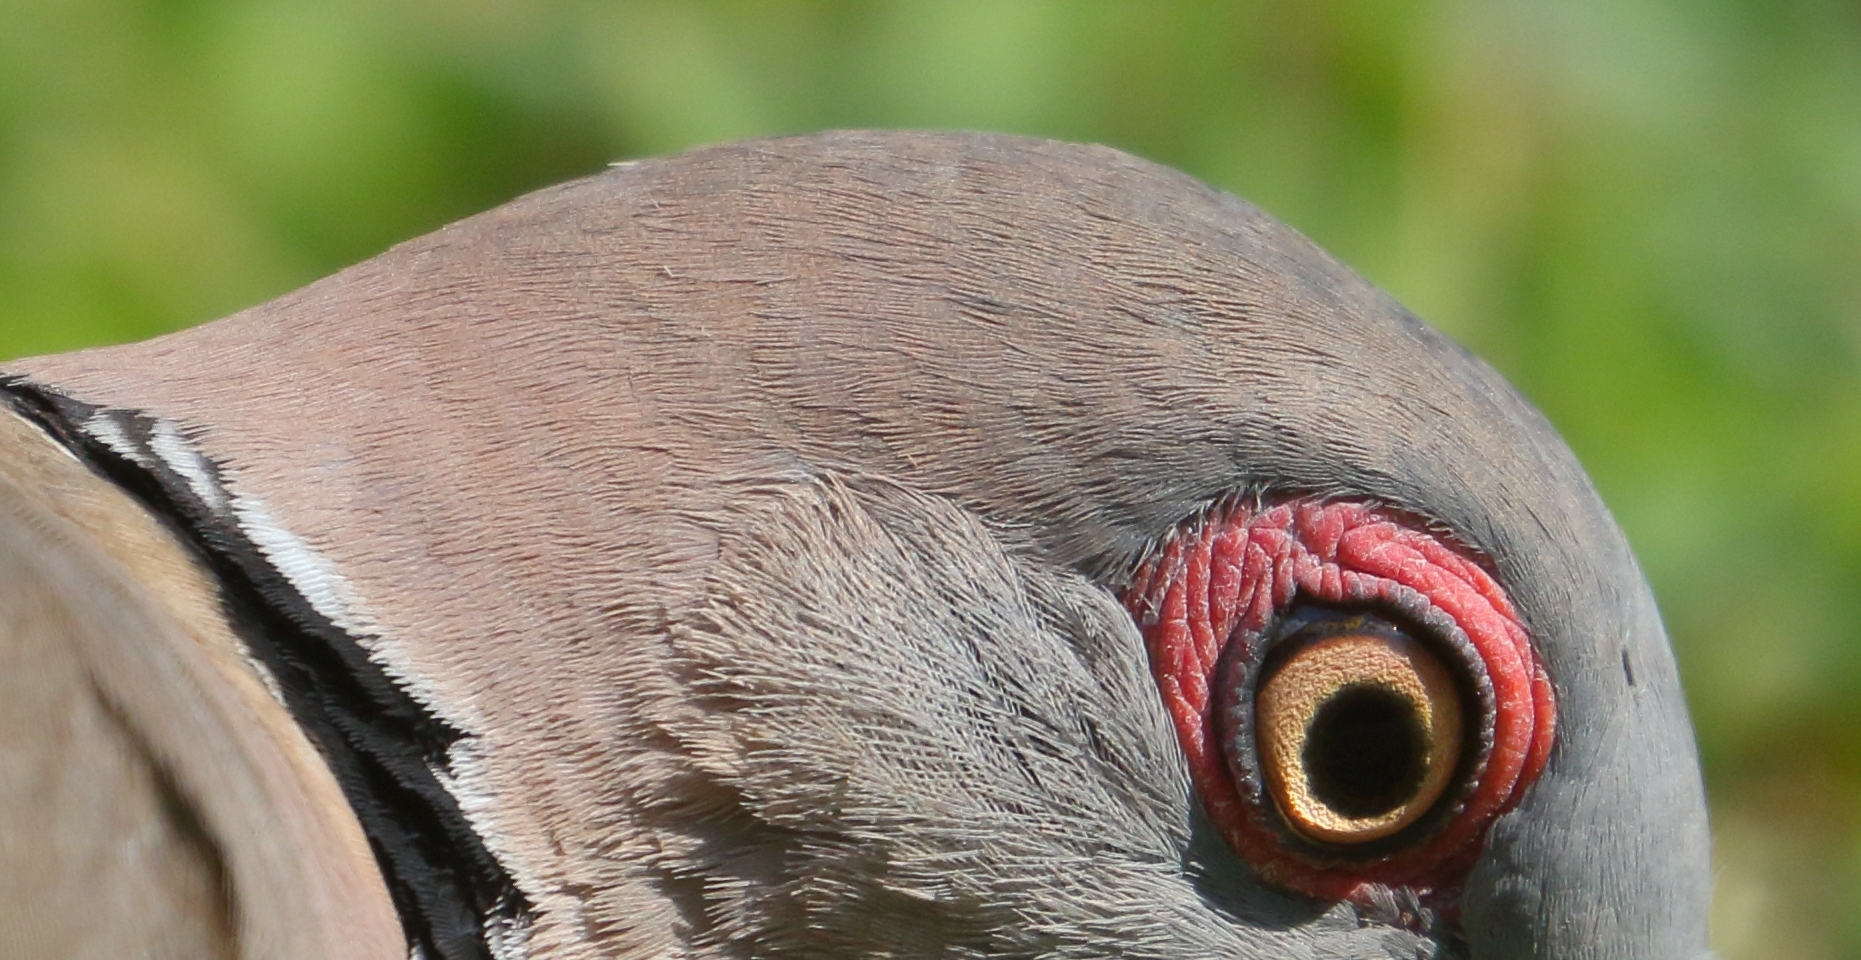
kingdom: Animalia
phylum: Chordata
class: Aves
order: Columbiformes
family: Columbidae
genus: Streptopelia
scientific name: Streptopelia decipiens
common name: Mourning collared dove
